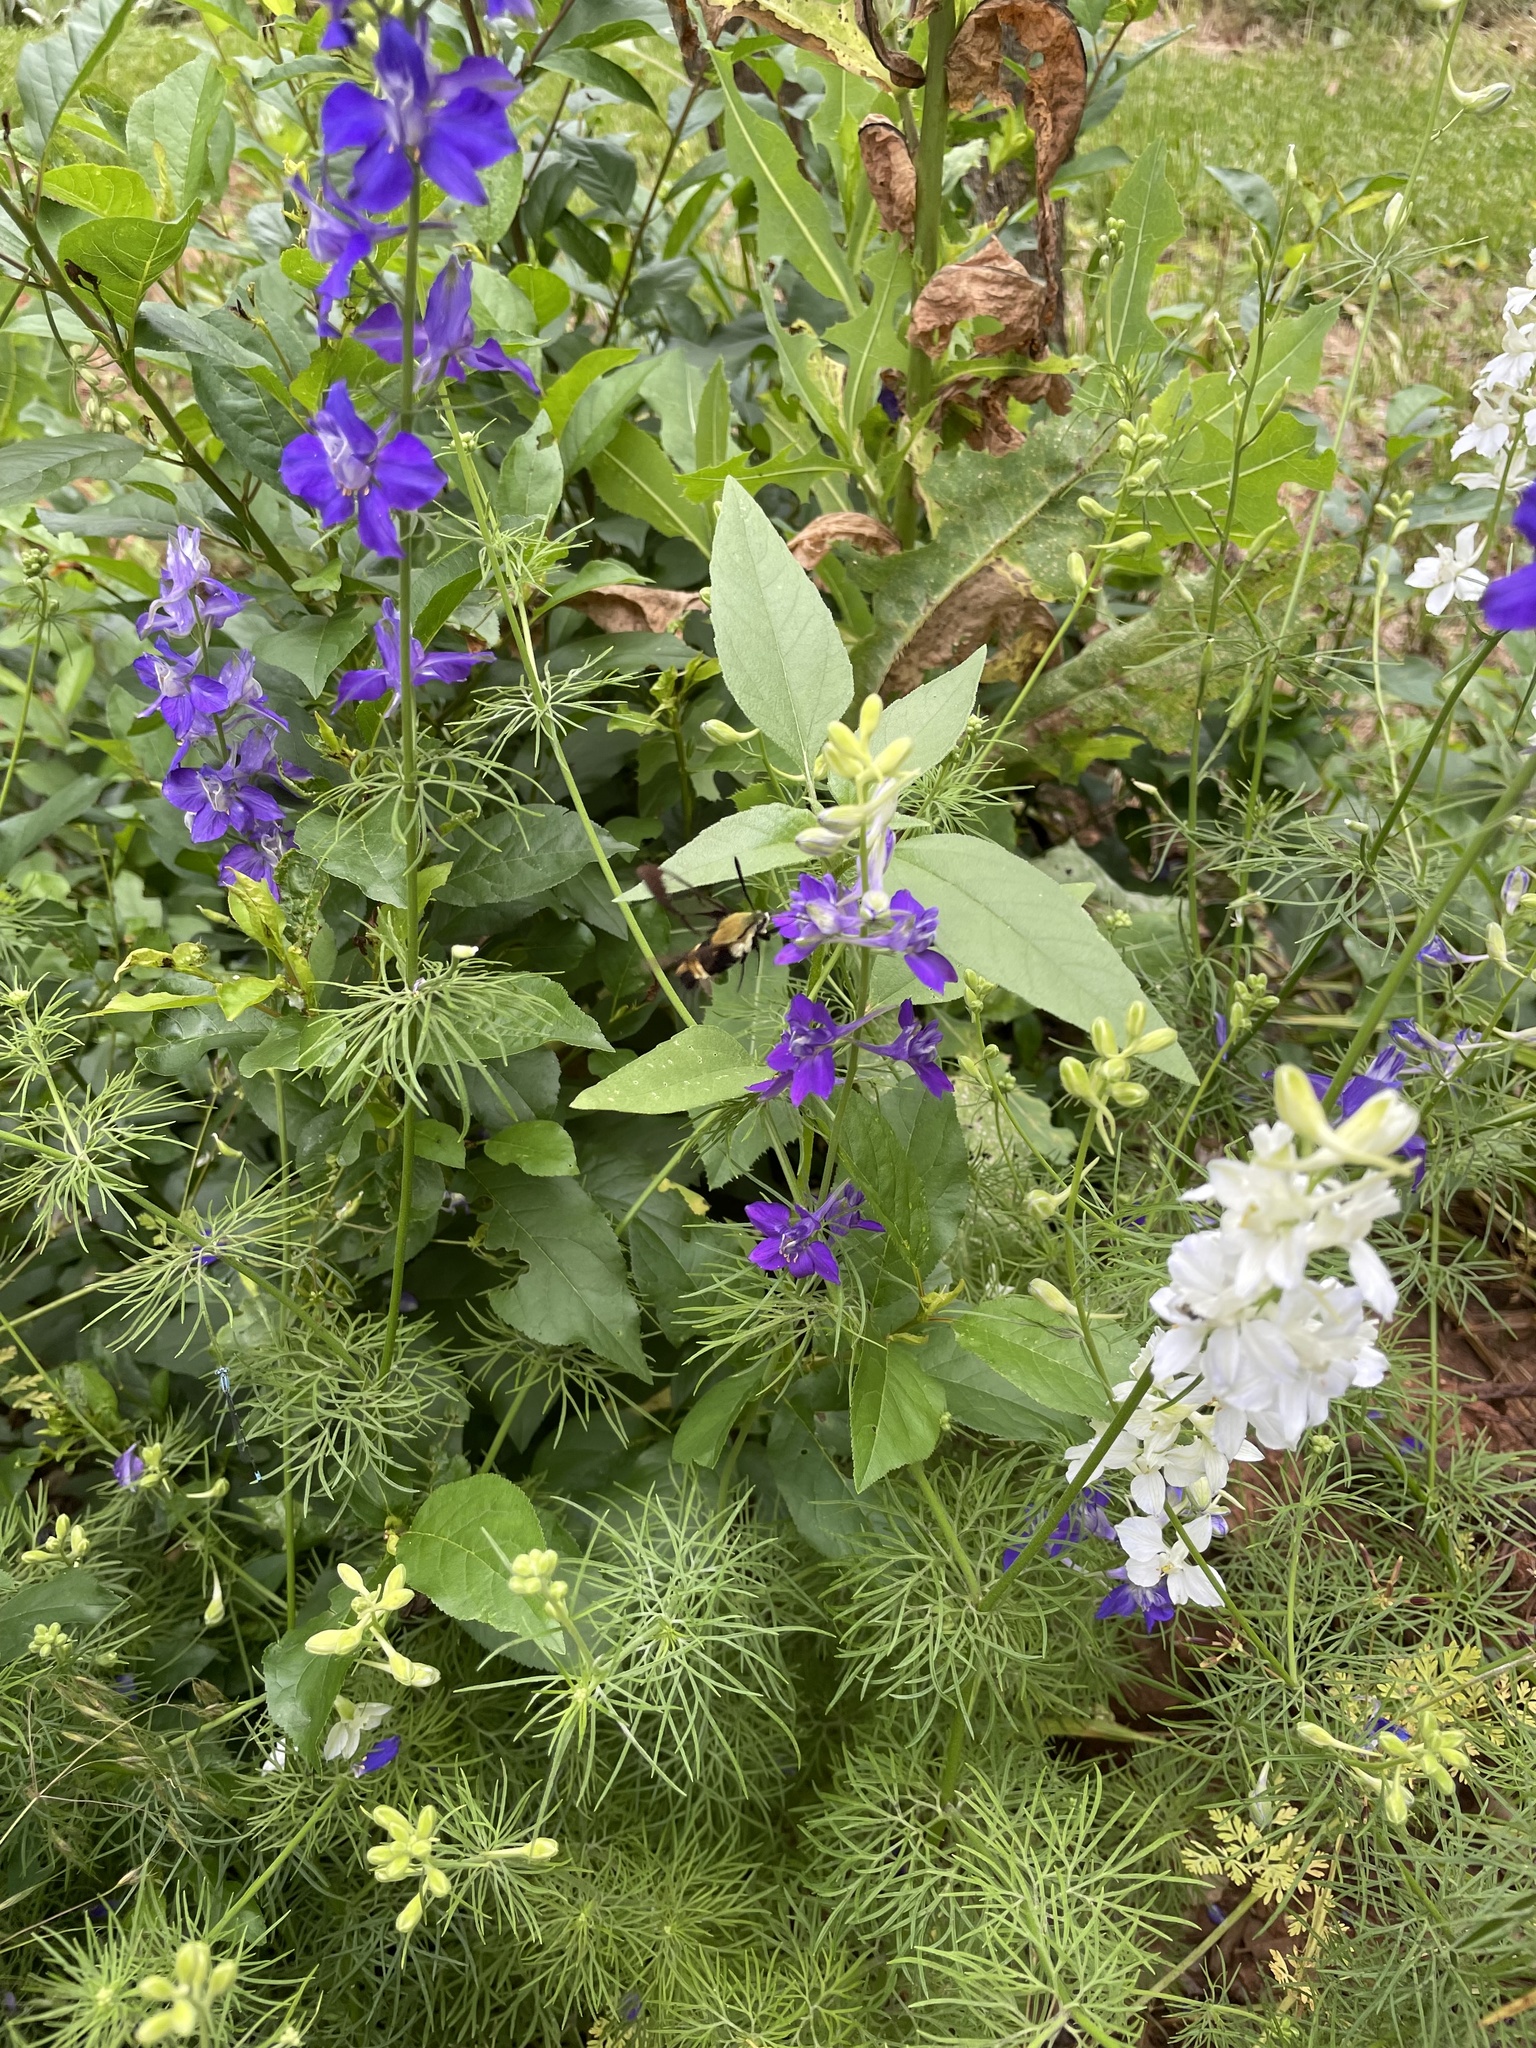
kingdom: Animalia
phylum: Arthropoda
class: Insecta
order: Lepidoptera
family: Sphingidae
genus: Hemaris
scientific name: Hemaris diffinis
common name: Bumblebee moth
